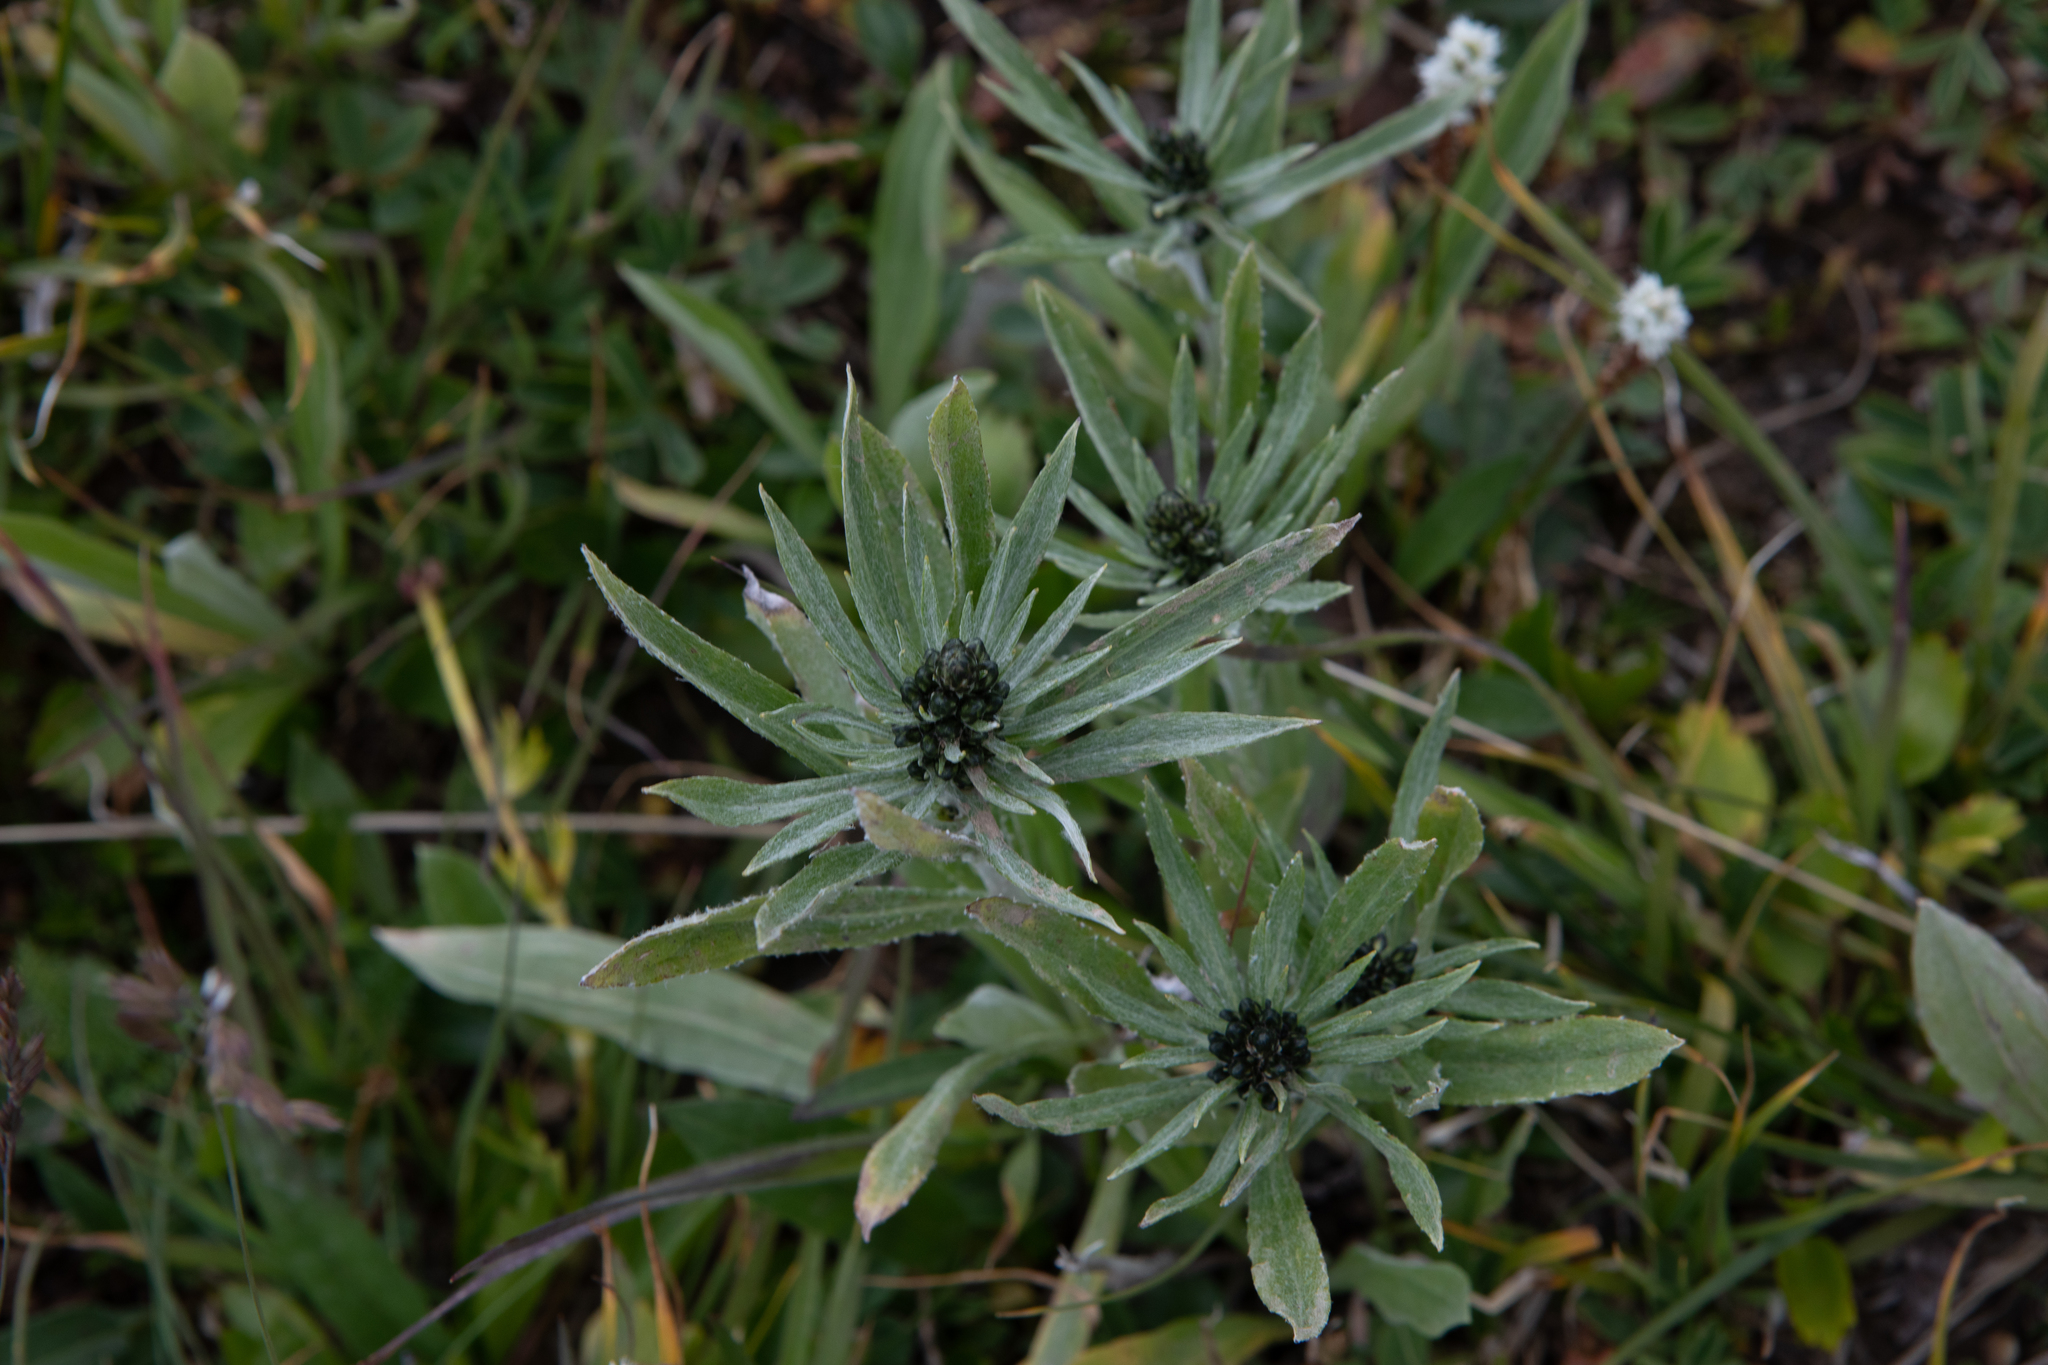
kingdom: Plantae
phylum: Tracheophyta
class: Magnoliopsida
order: Asterales
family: Asteraceae
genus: Omalotheca
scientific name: Omalotheca norvegica
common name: Norwegian arctic-cudweed
